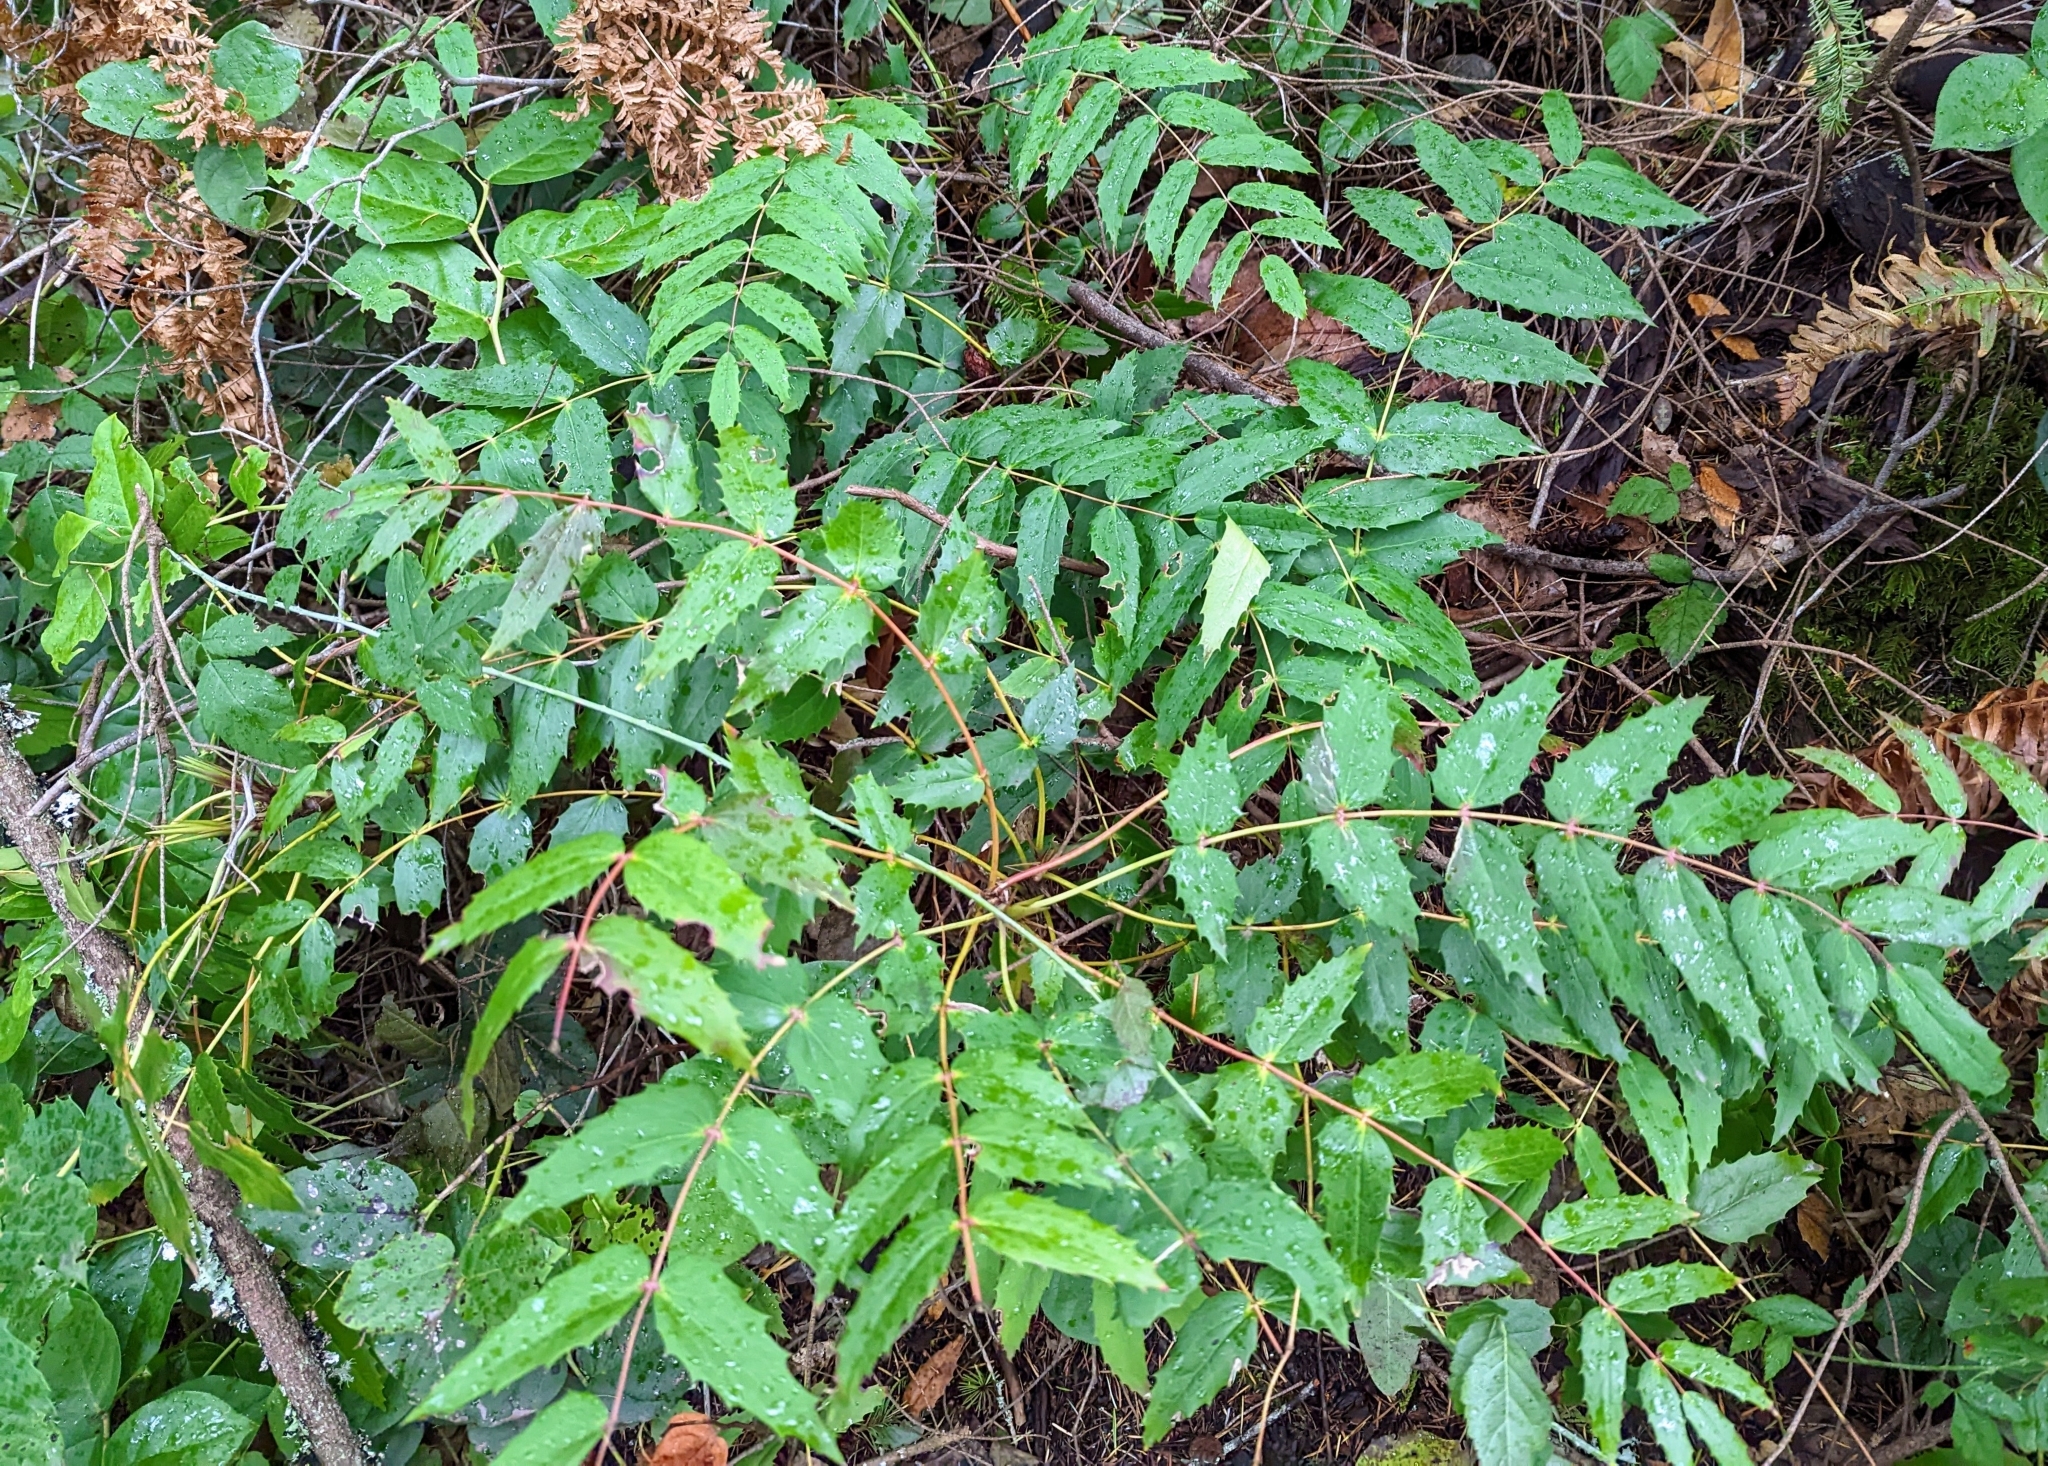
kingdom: Plantae
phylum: Tracheophyta
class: Magnoliopsida
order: Ranunculales
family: Berberidaceae
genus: Mahonia
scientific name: Mahonia nervosa
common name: Cascade oregon-grape
